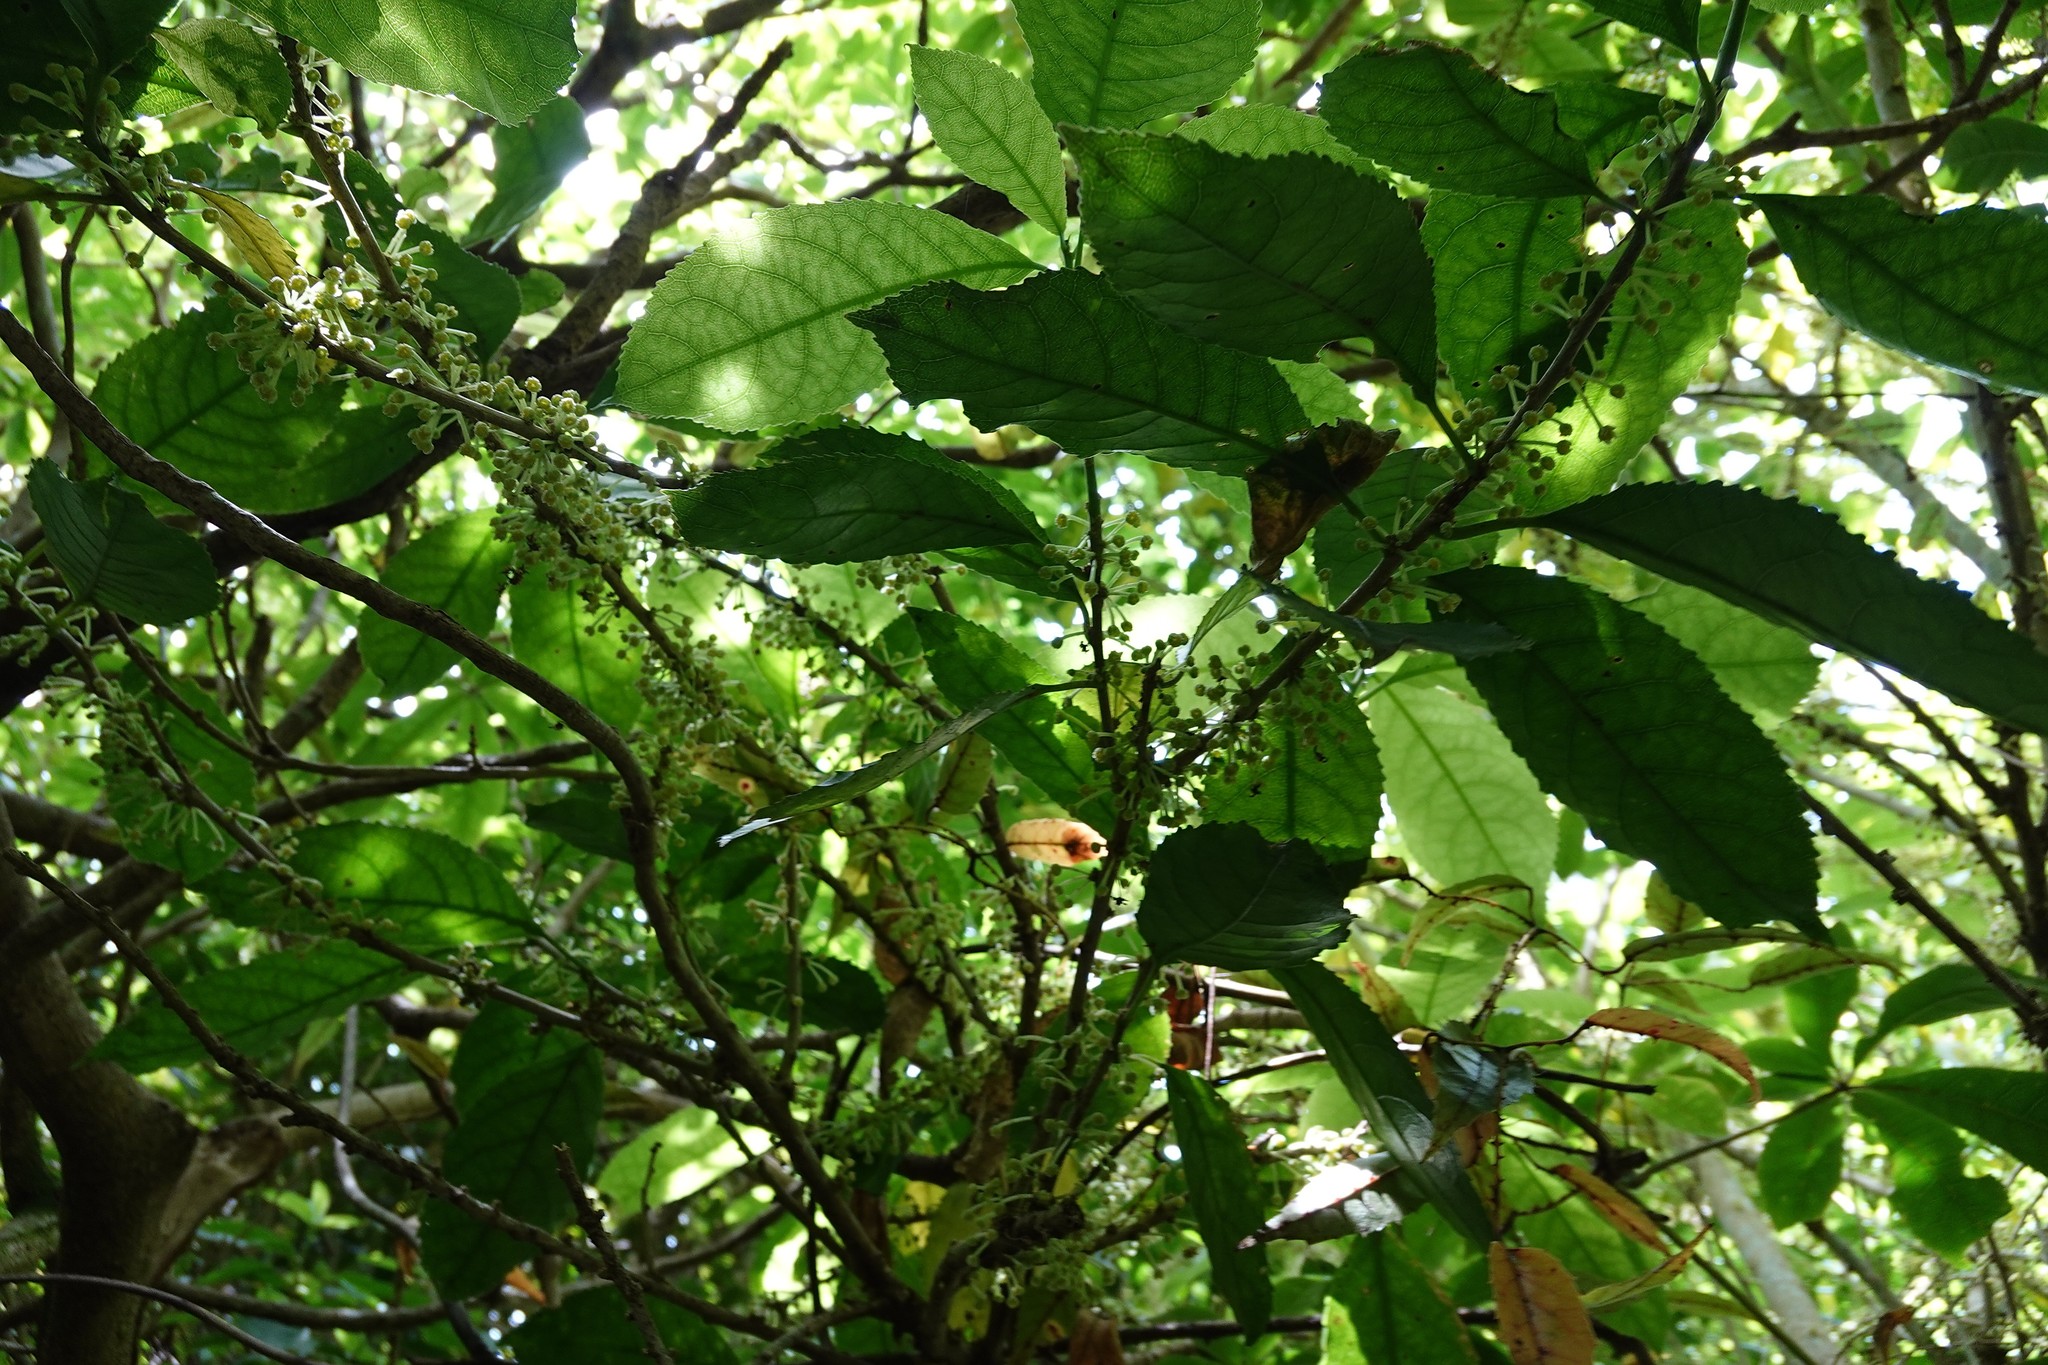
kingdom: Plantae
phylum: Tracheophyta
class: Magnoliopsida
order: Malpighiales
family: Violaceae
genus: Melicytus
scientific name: Melicytus ramiflorus
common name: Mahoe
